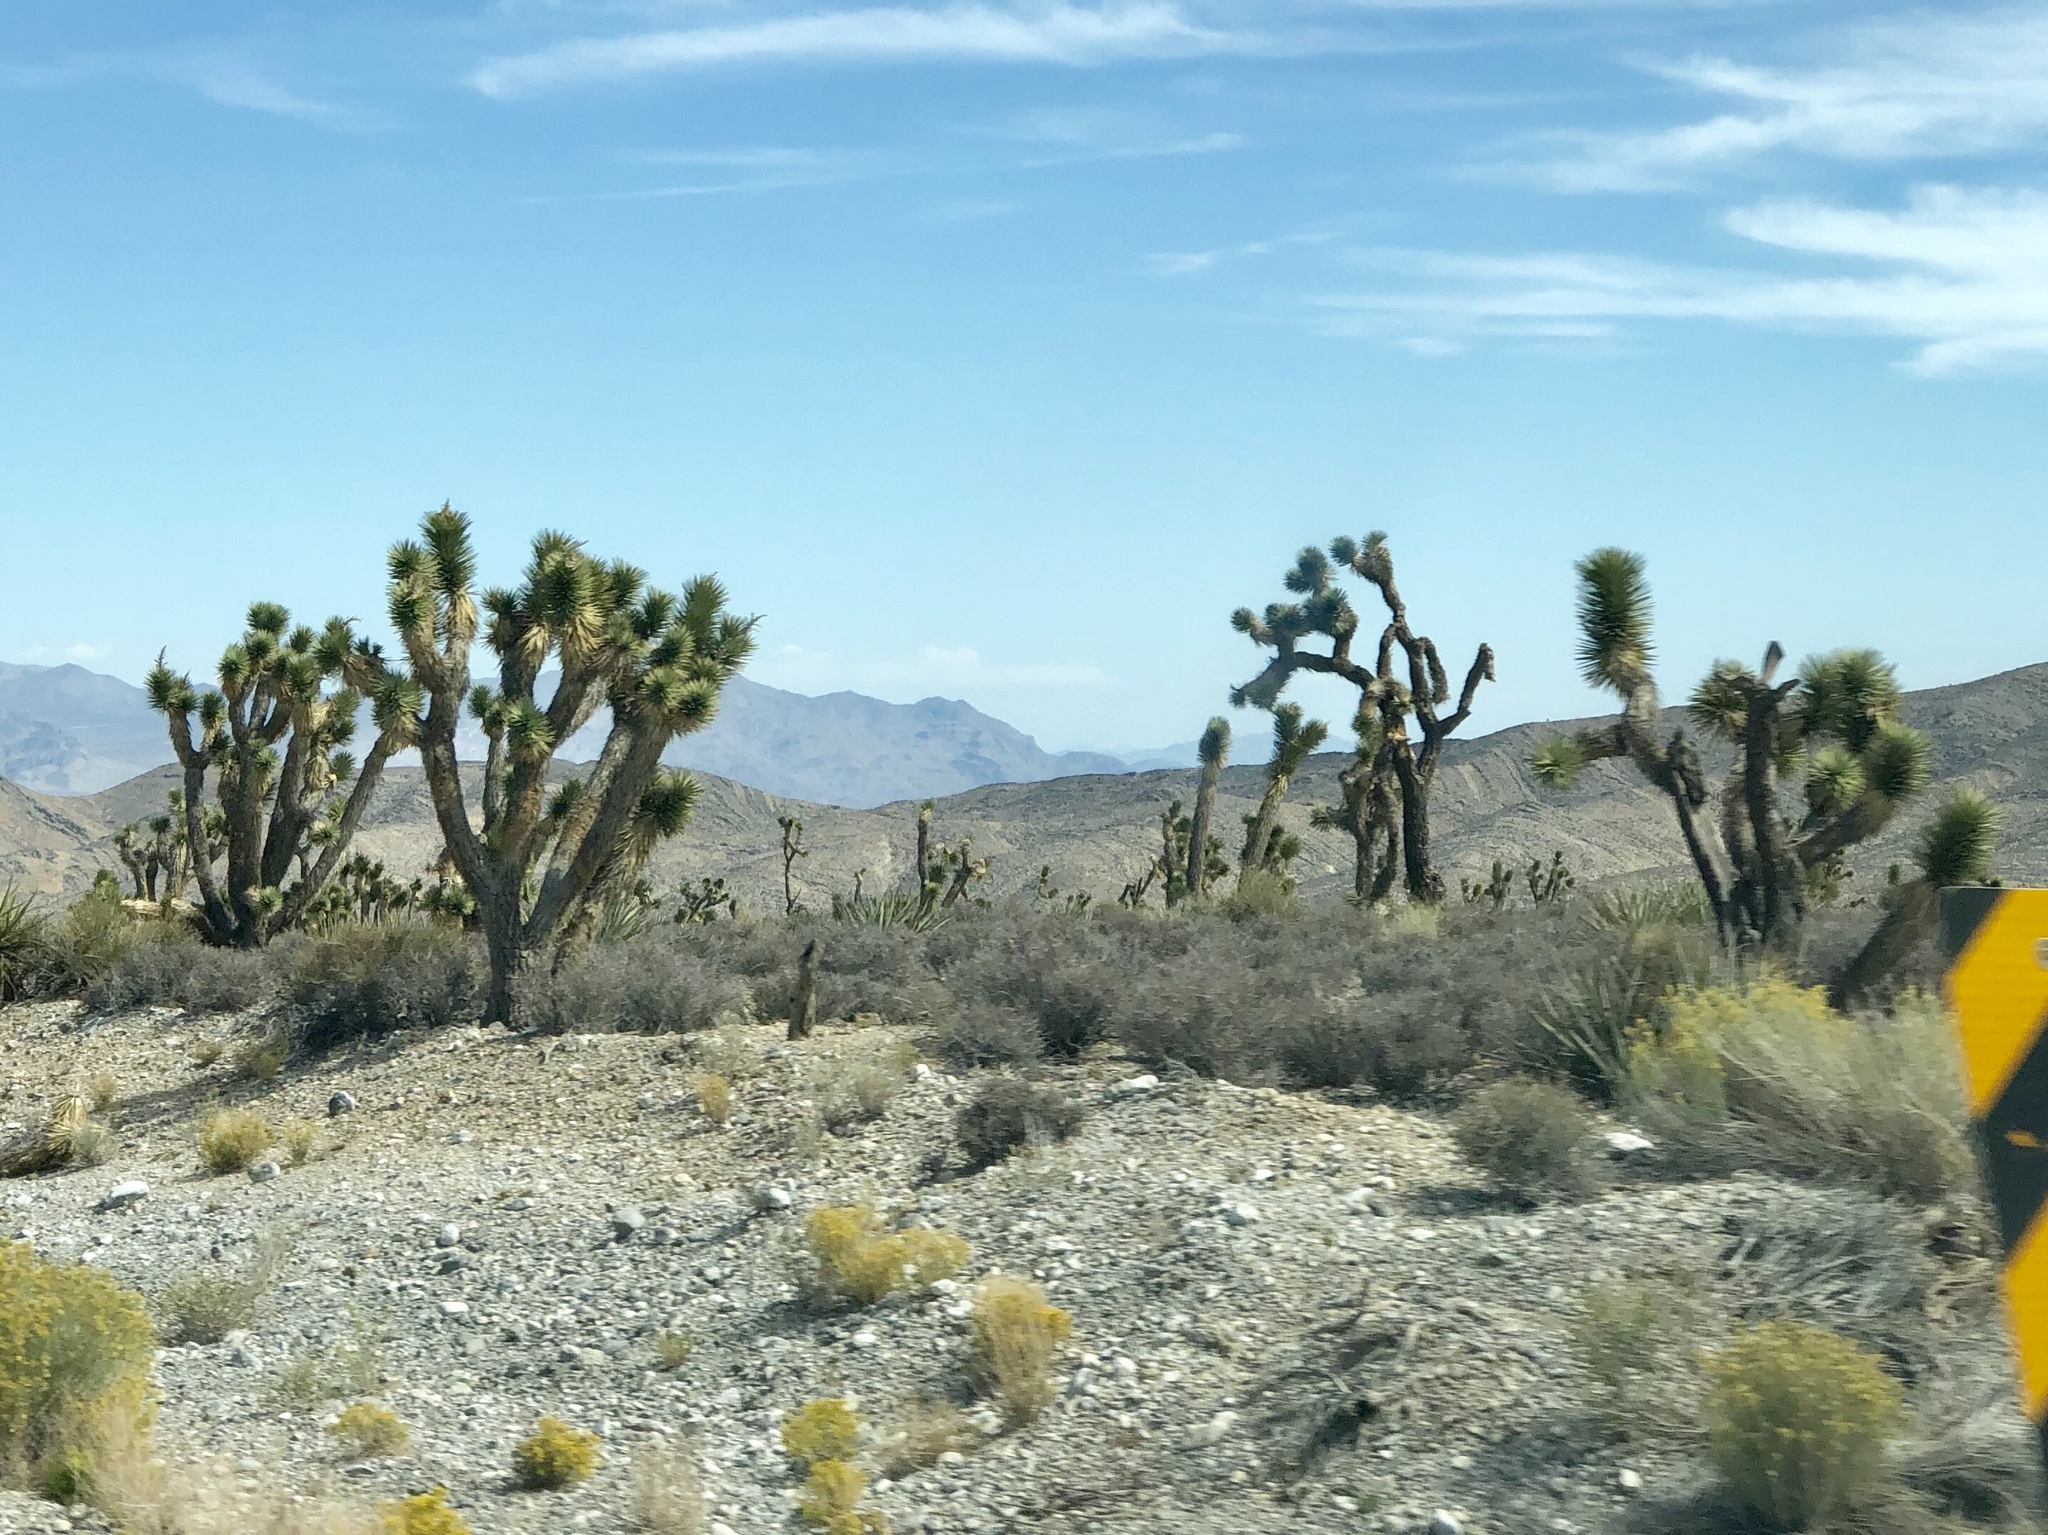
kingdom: Plantae
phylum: Tracheophyta
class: Liliopsida
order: Asparagales
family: Asparagaceae
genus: Yucca
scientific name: Yucca brevifolia
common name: Joshua tree
